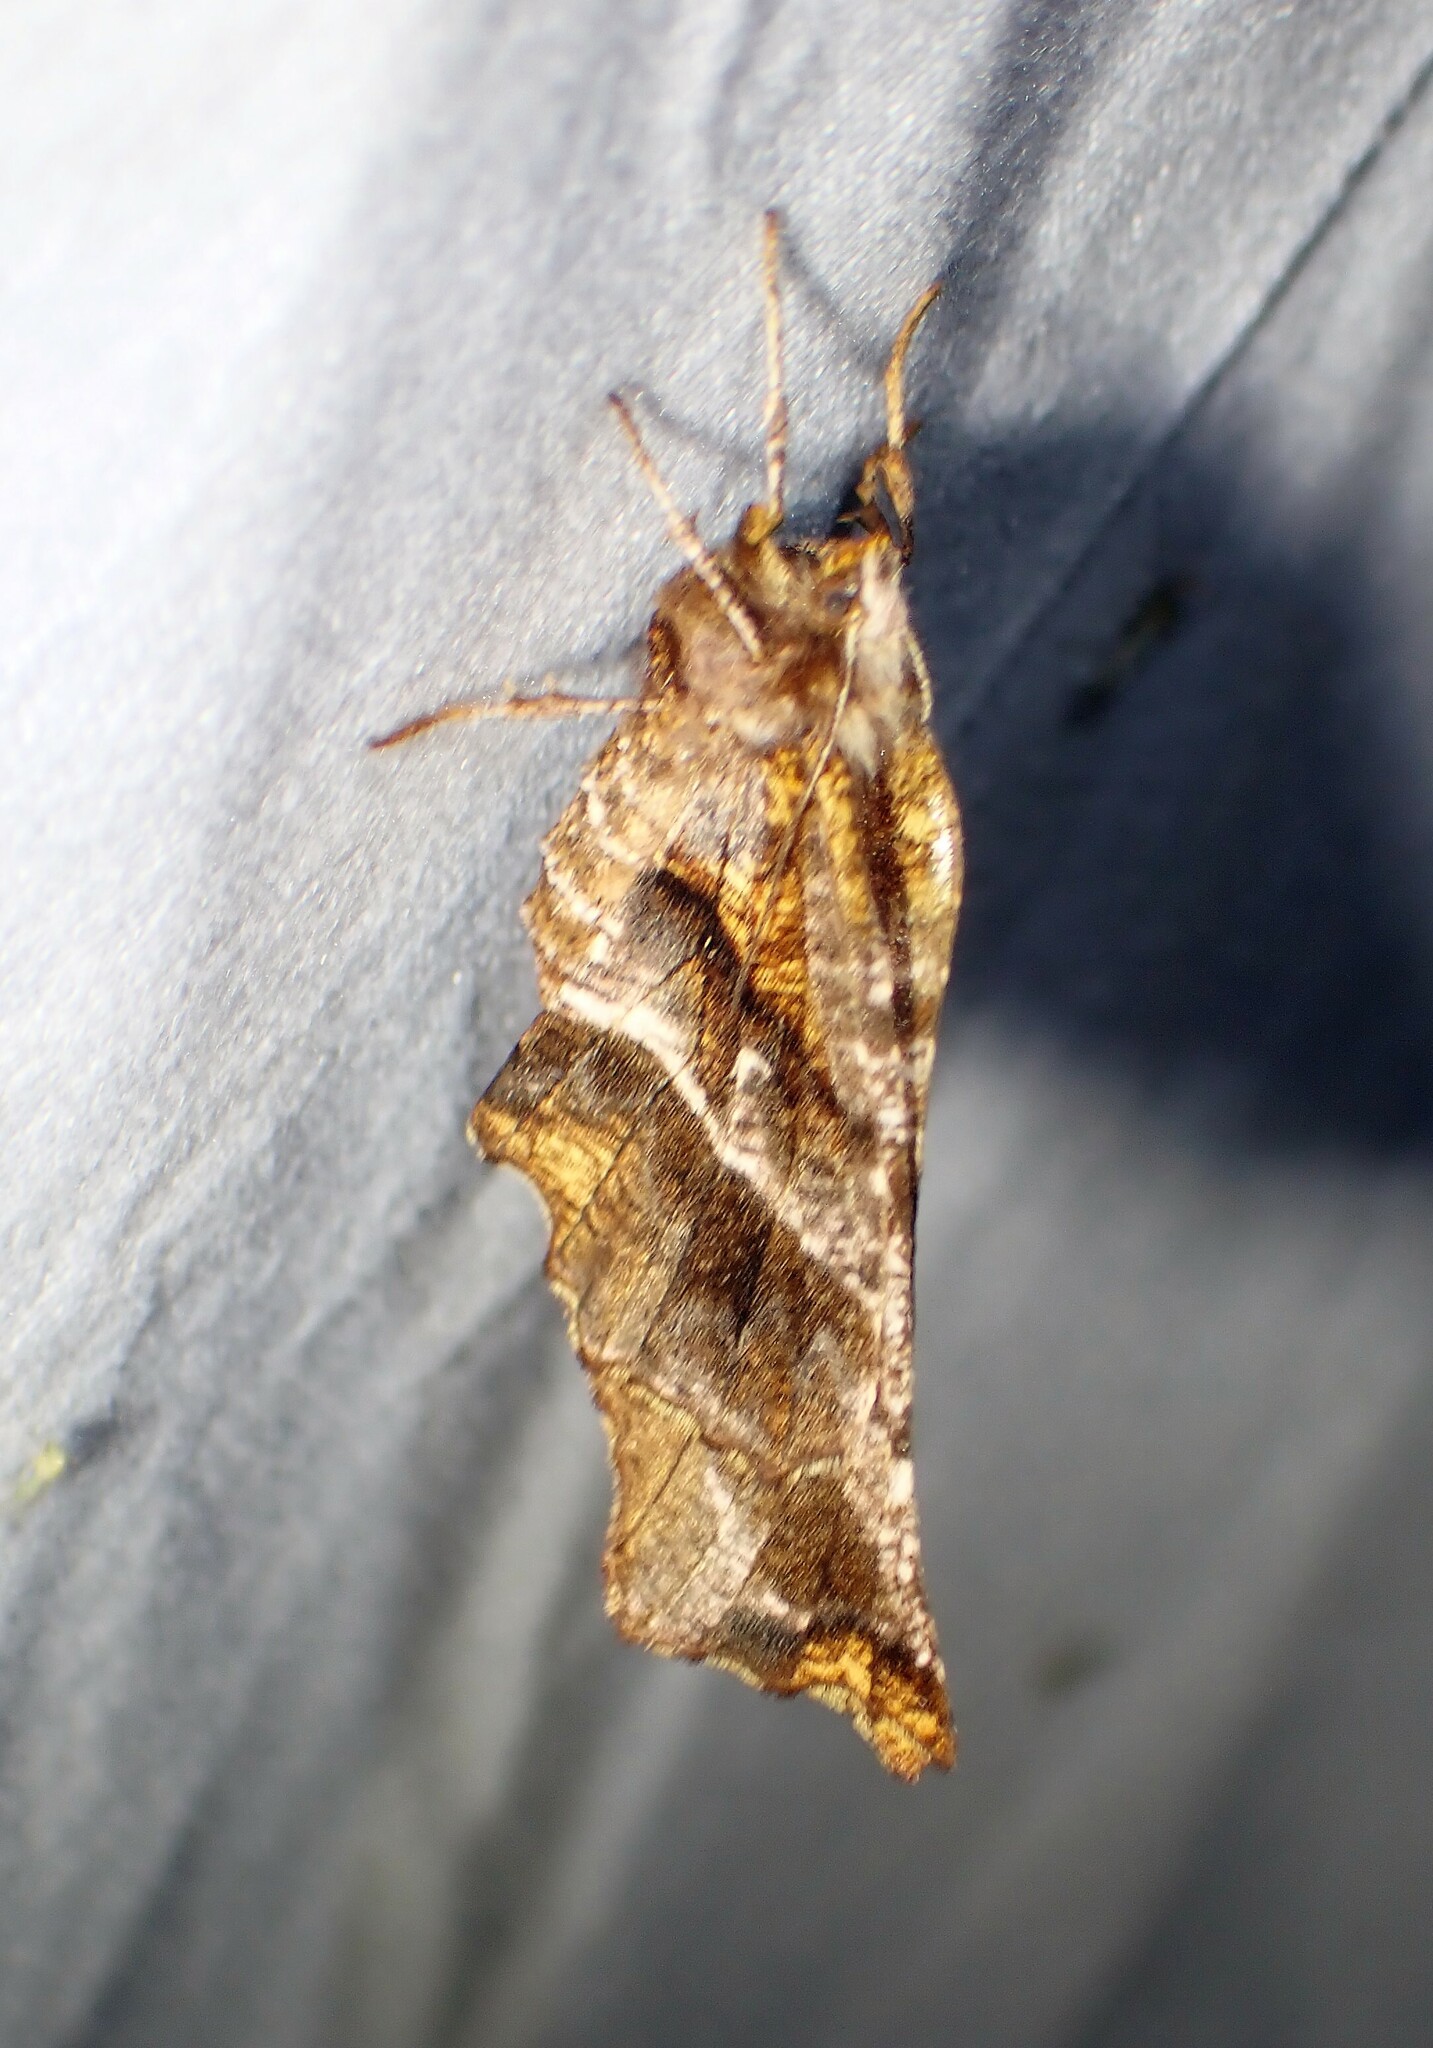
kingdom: Animalia
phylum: Arthropoda
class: Insecta
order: Lepidoptera
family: Geometridae
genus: Selenia
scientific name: Selenia alciphearia
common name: Brown-tipped thorn
